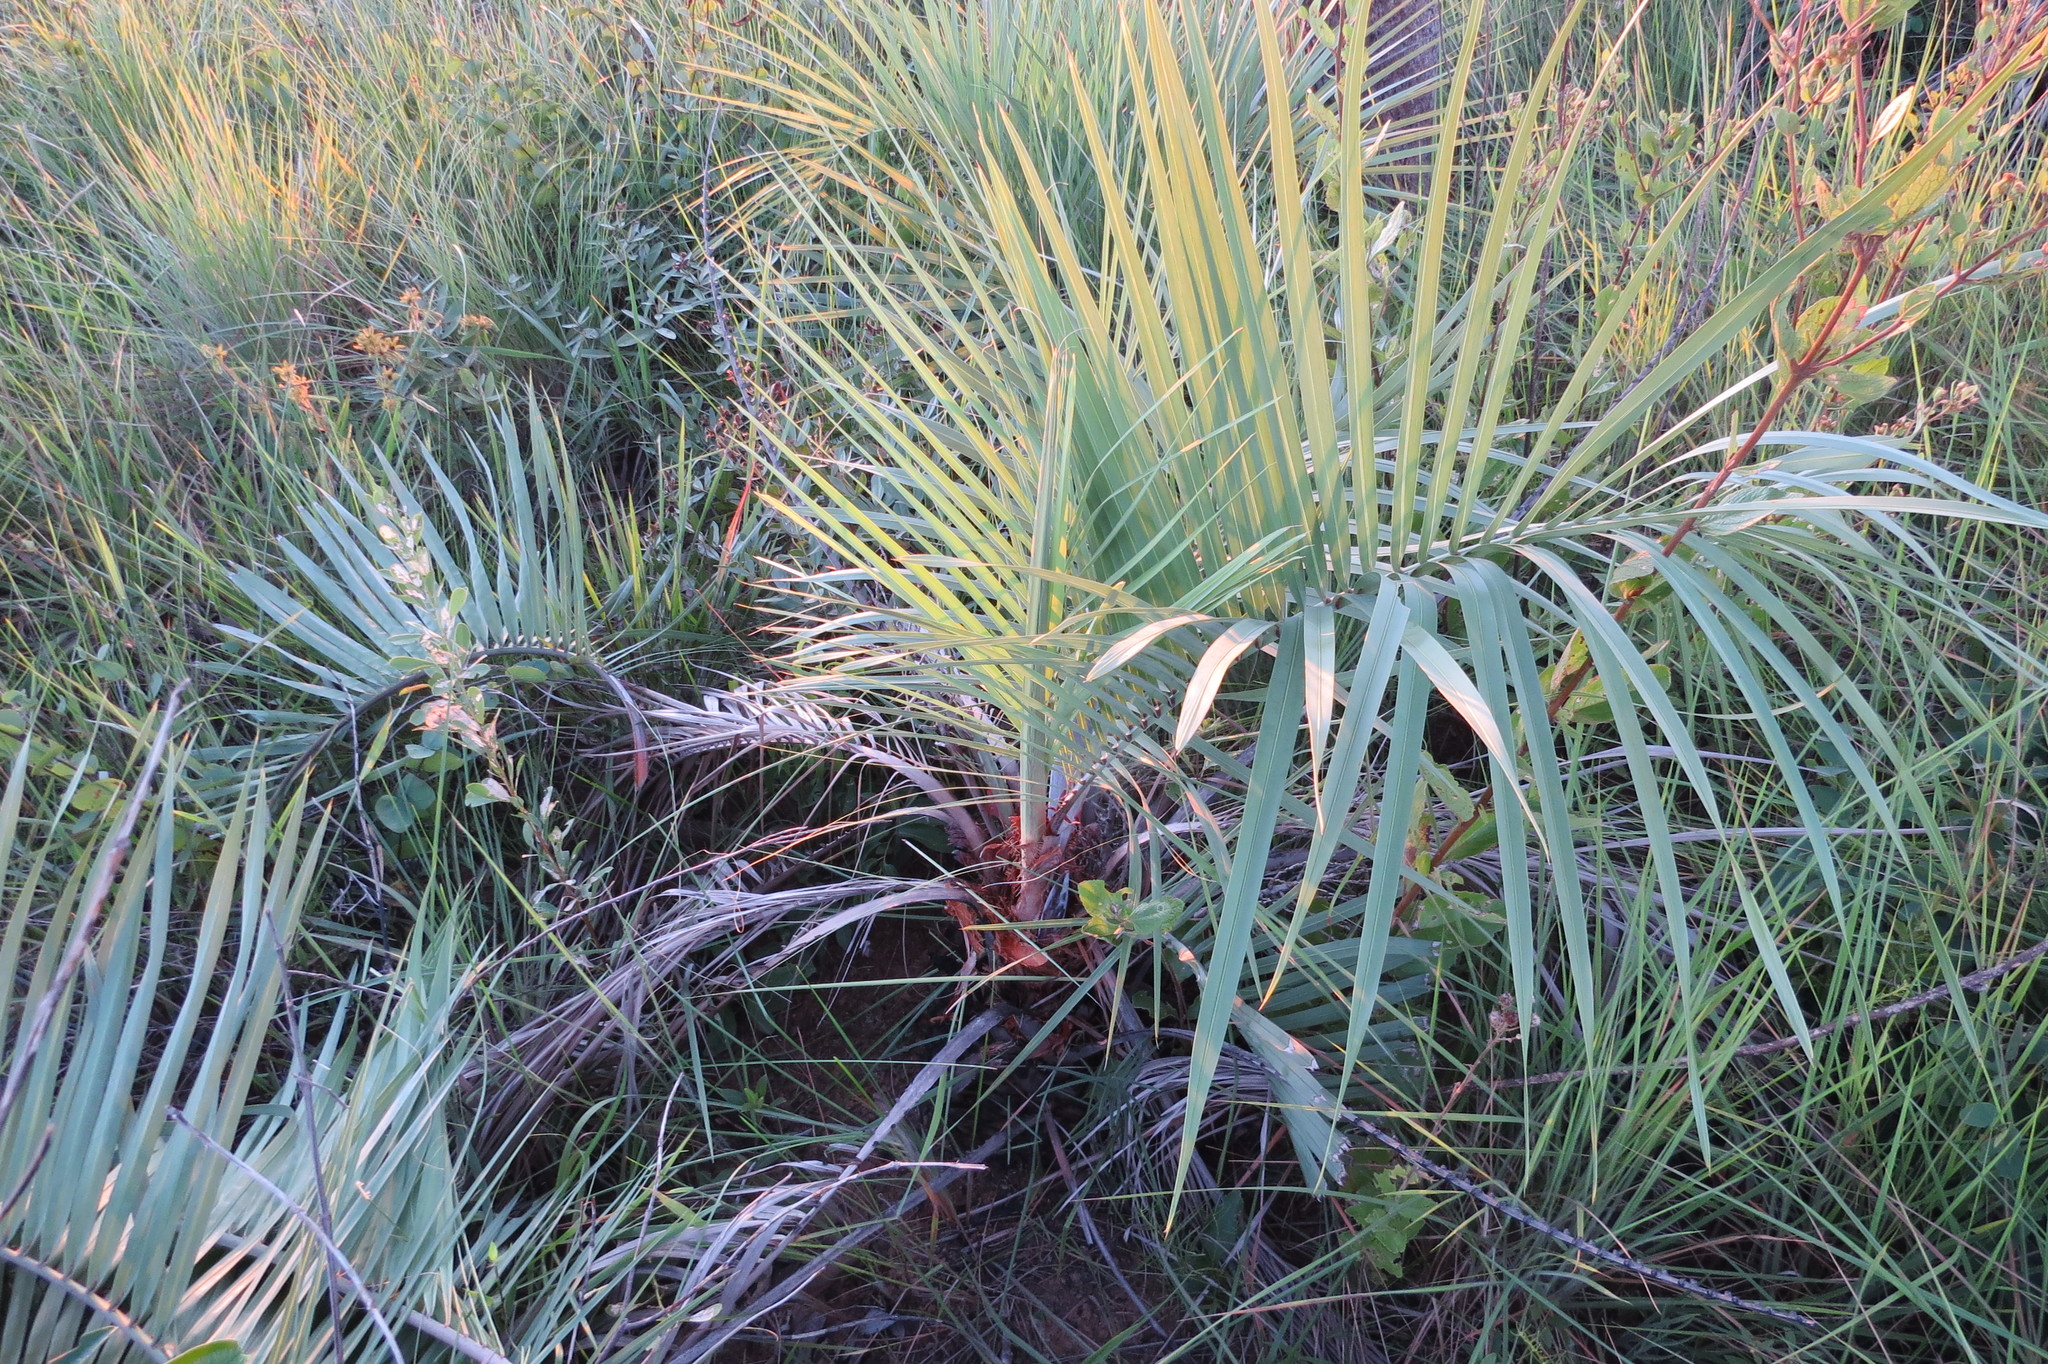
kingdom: Plantae
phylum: Tracheophyta
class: Liliopsida
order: Arecales
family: Arecaceae
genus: Butia
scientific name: Butia archeri
